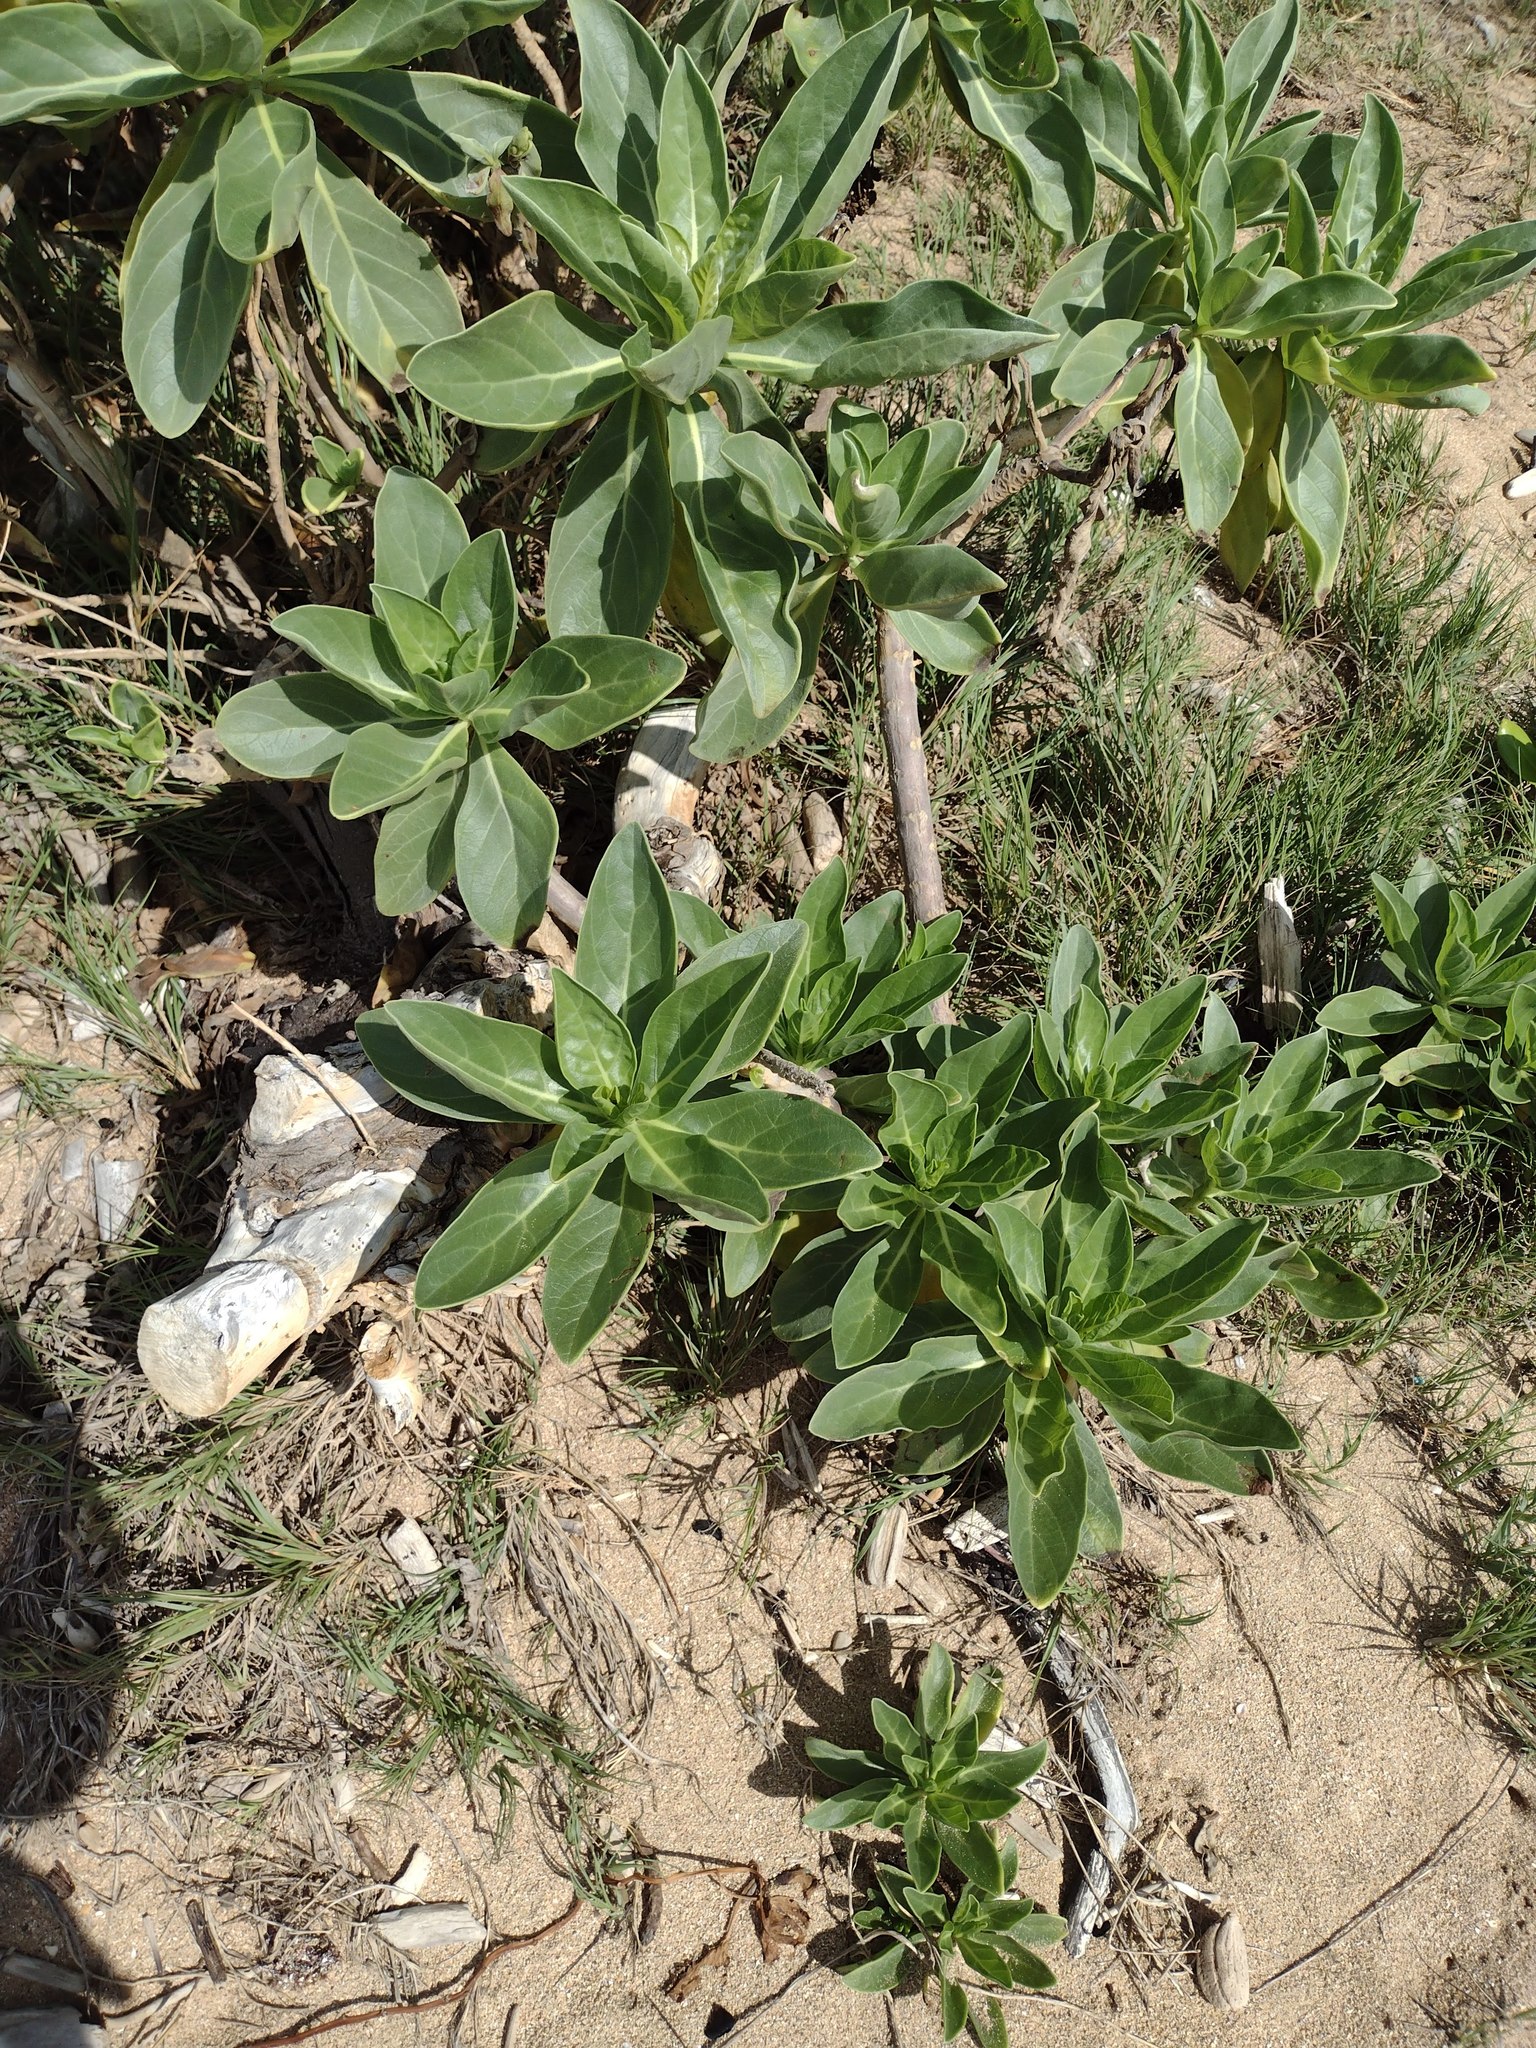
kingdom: Plantae
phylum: Tracheophyta
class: Magnoliopsida
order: Boraginales
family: Heliotropiaceae
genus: Heliotropium
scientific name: Heliotropium velutinum
